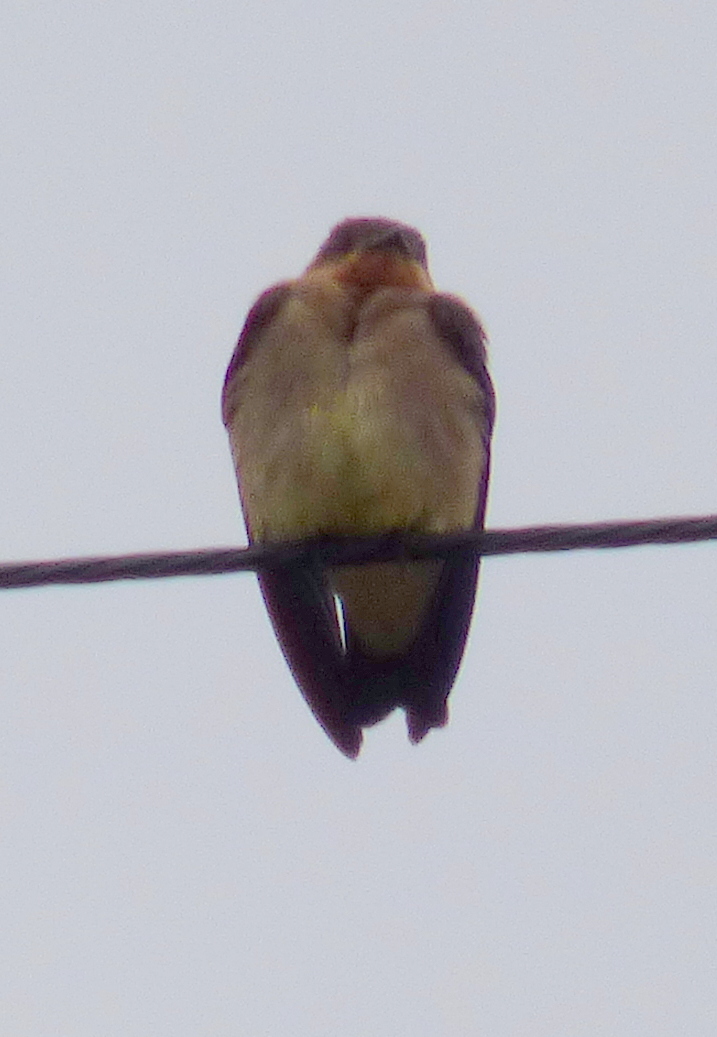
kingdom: Animalia
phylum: Chordata
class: Aves
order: Passeriformes
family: Hirundinidae
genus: Stelgidopteryx
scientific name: Stelgidopteryx ruficollis
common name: Southern rough-winged swallow
